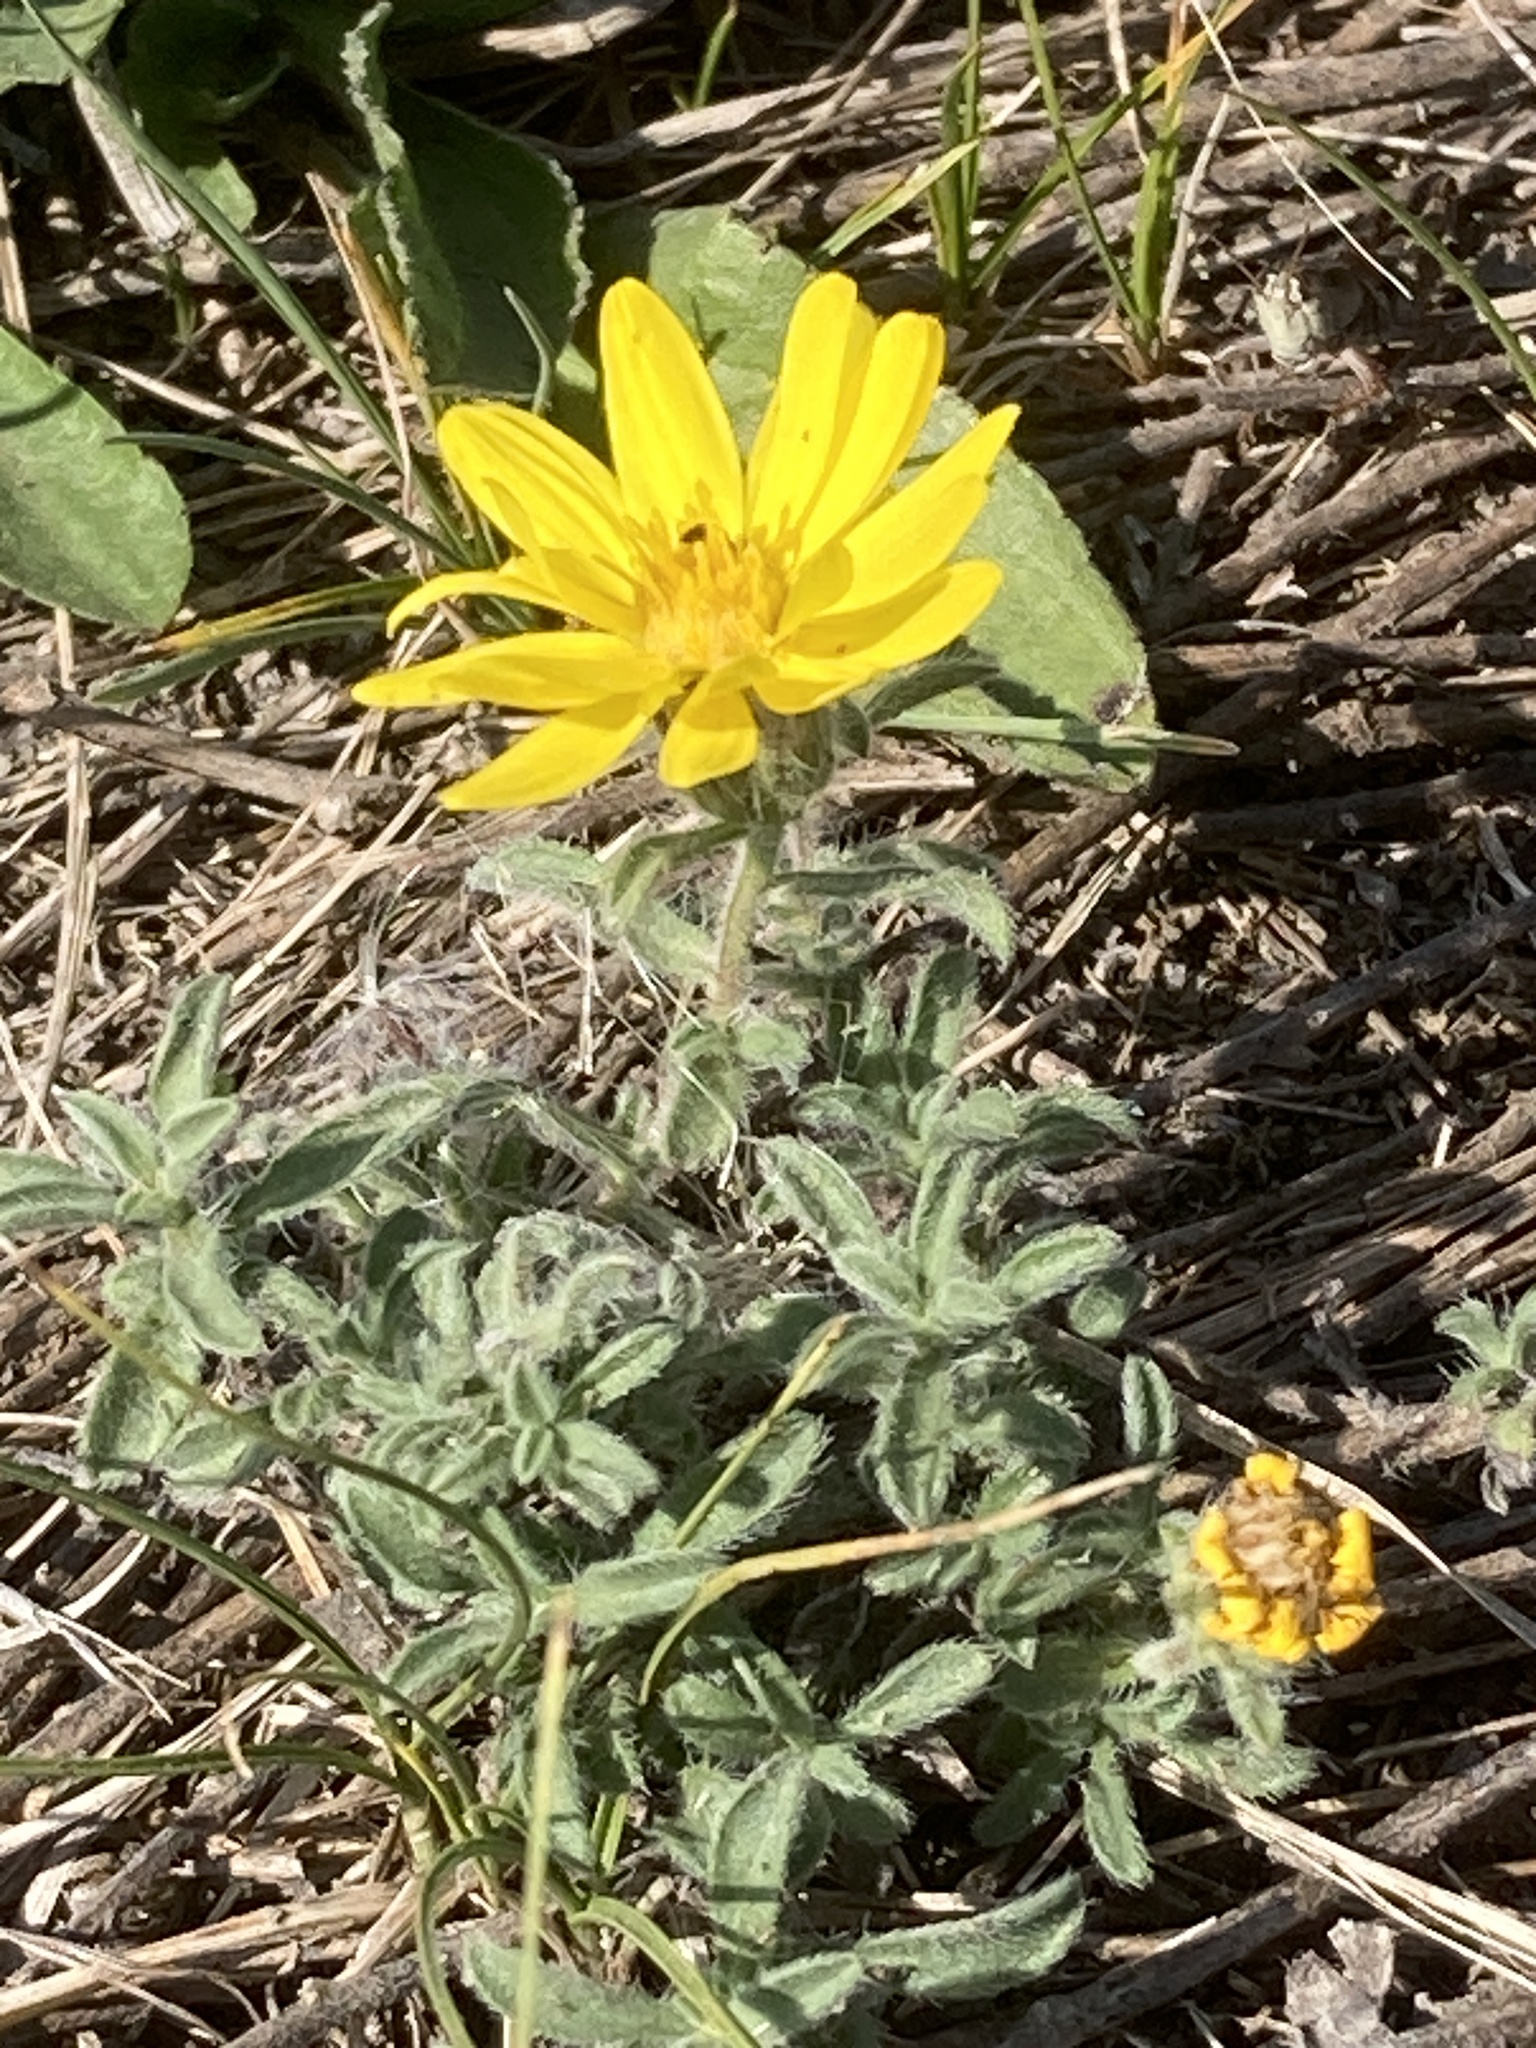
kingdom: Plantae
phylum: Tracheophyta
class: Magnoliopsida
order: Asterales
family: Asteraceae
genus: Heterotheca
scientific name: Heterotheca villosa
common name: Hairy false goldenaster
